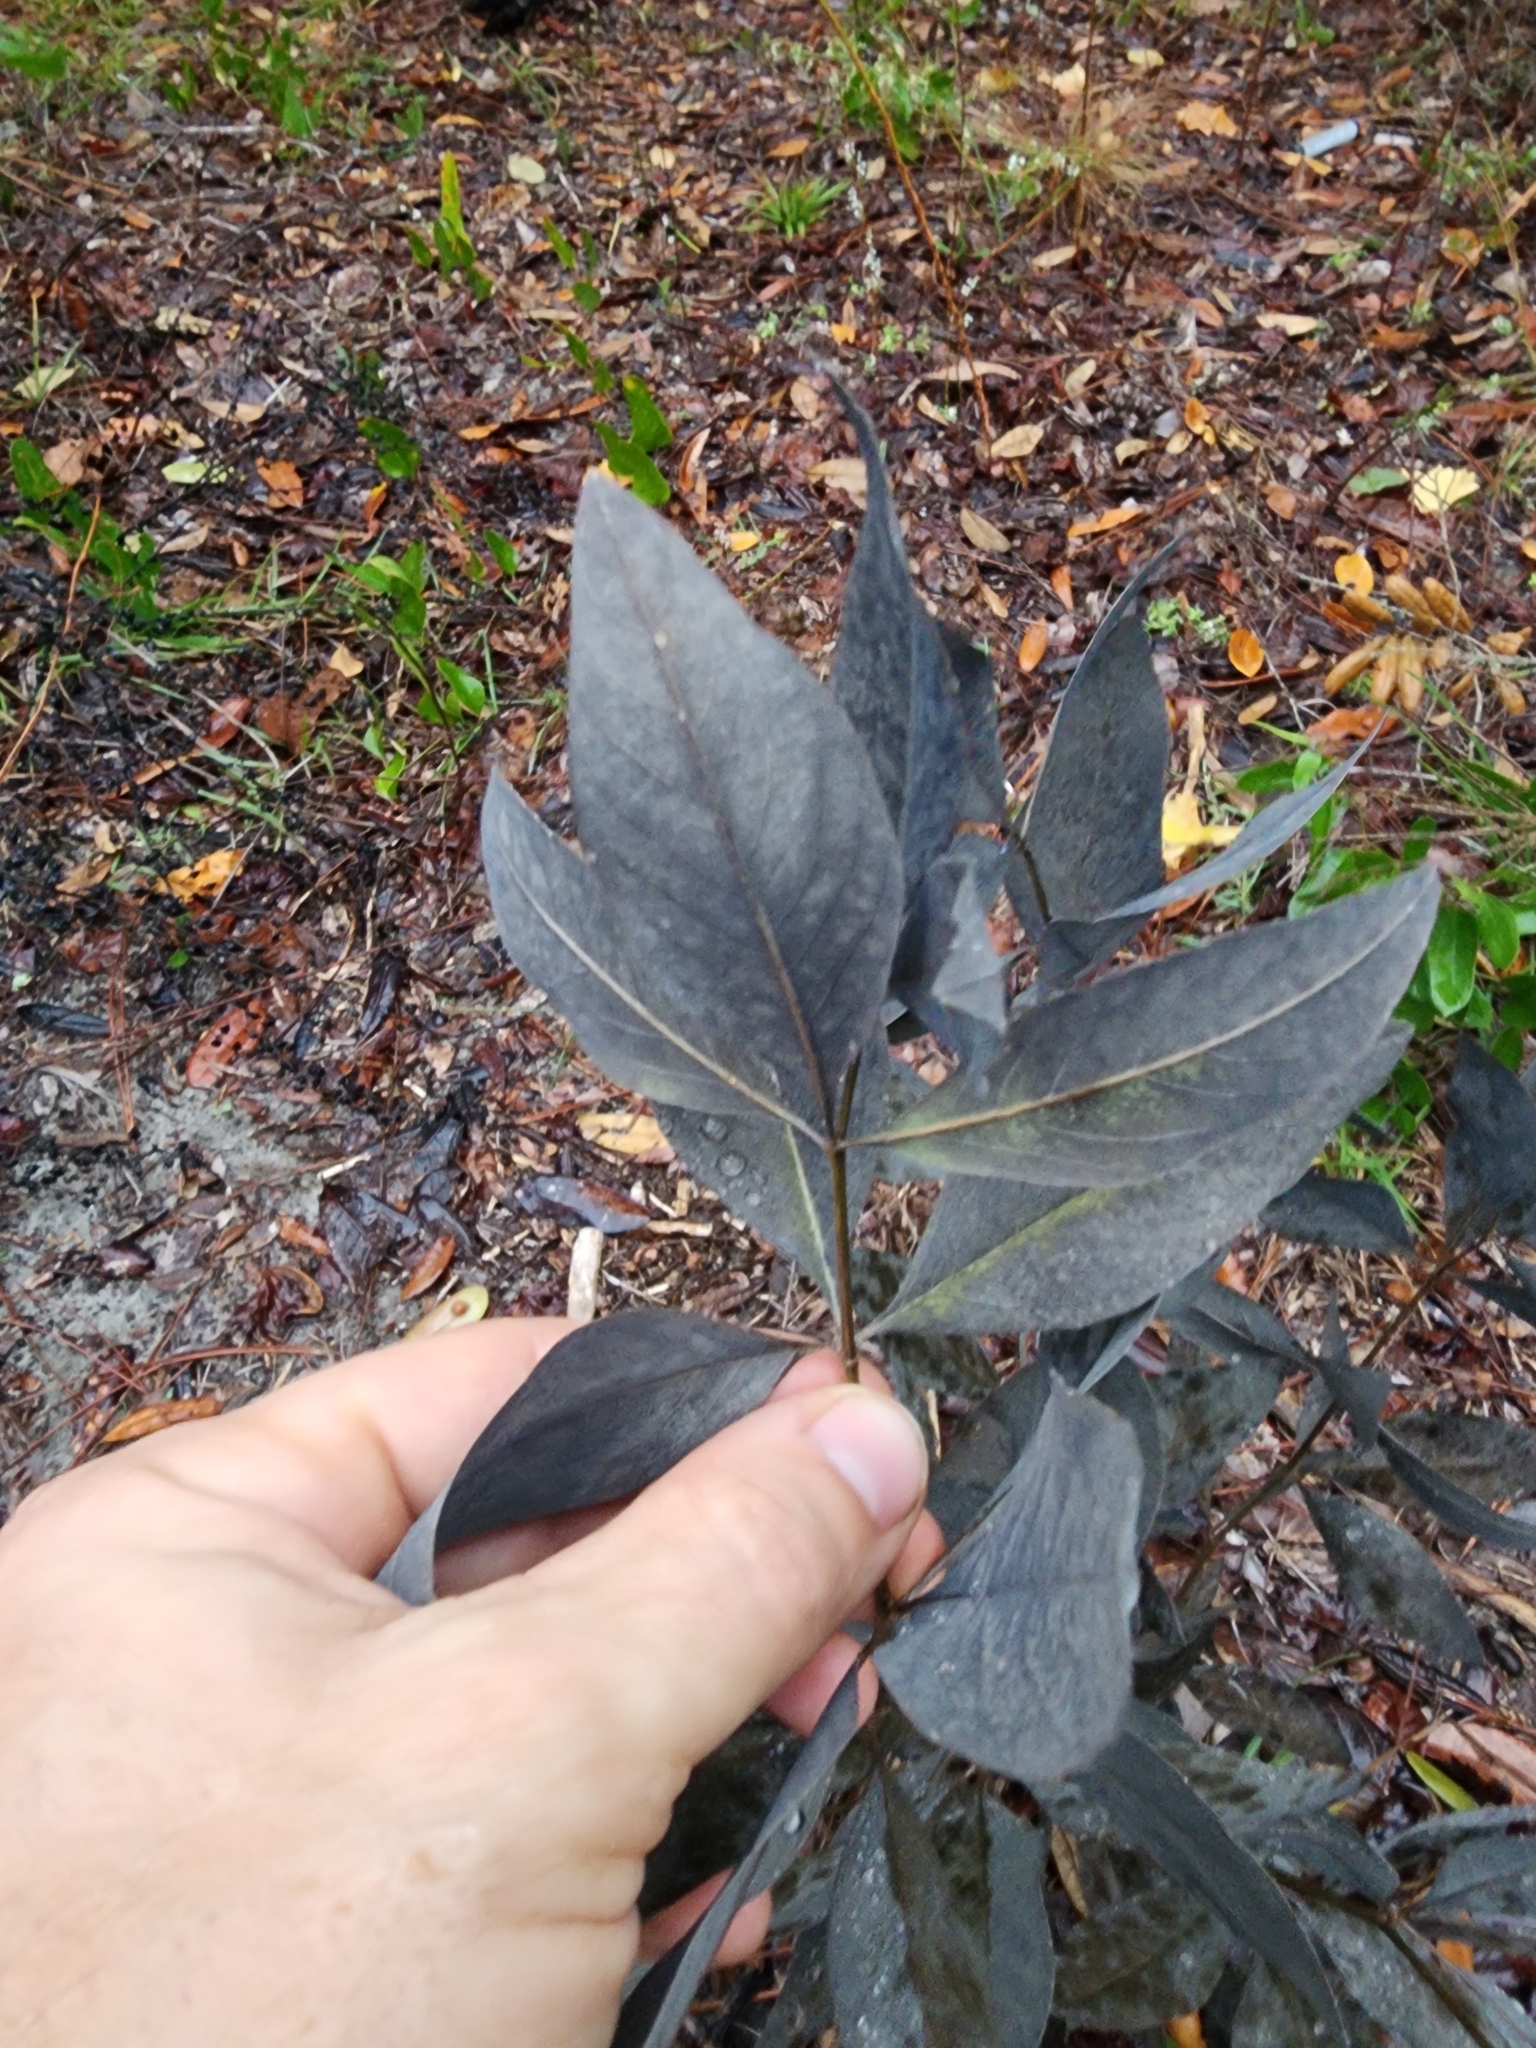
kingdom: Plantae
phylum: Tracheophyta
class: Magnoliopsida
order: Fabales
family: Fabaceae
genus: Baptisia
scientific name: Baptisia lanceolata
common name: Gopherweed
